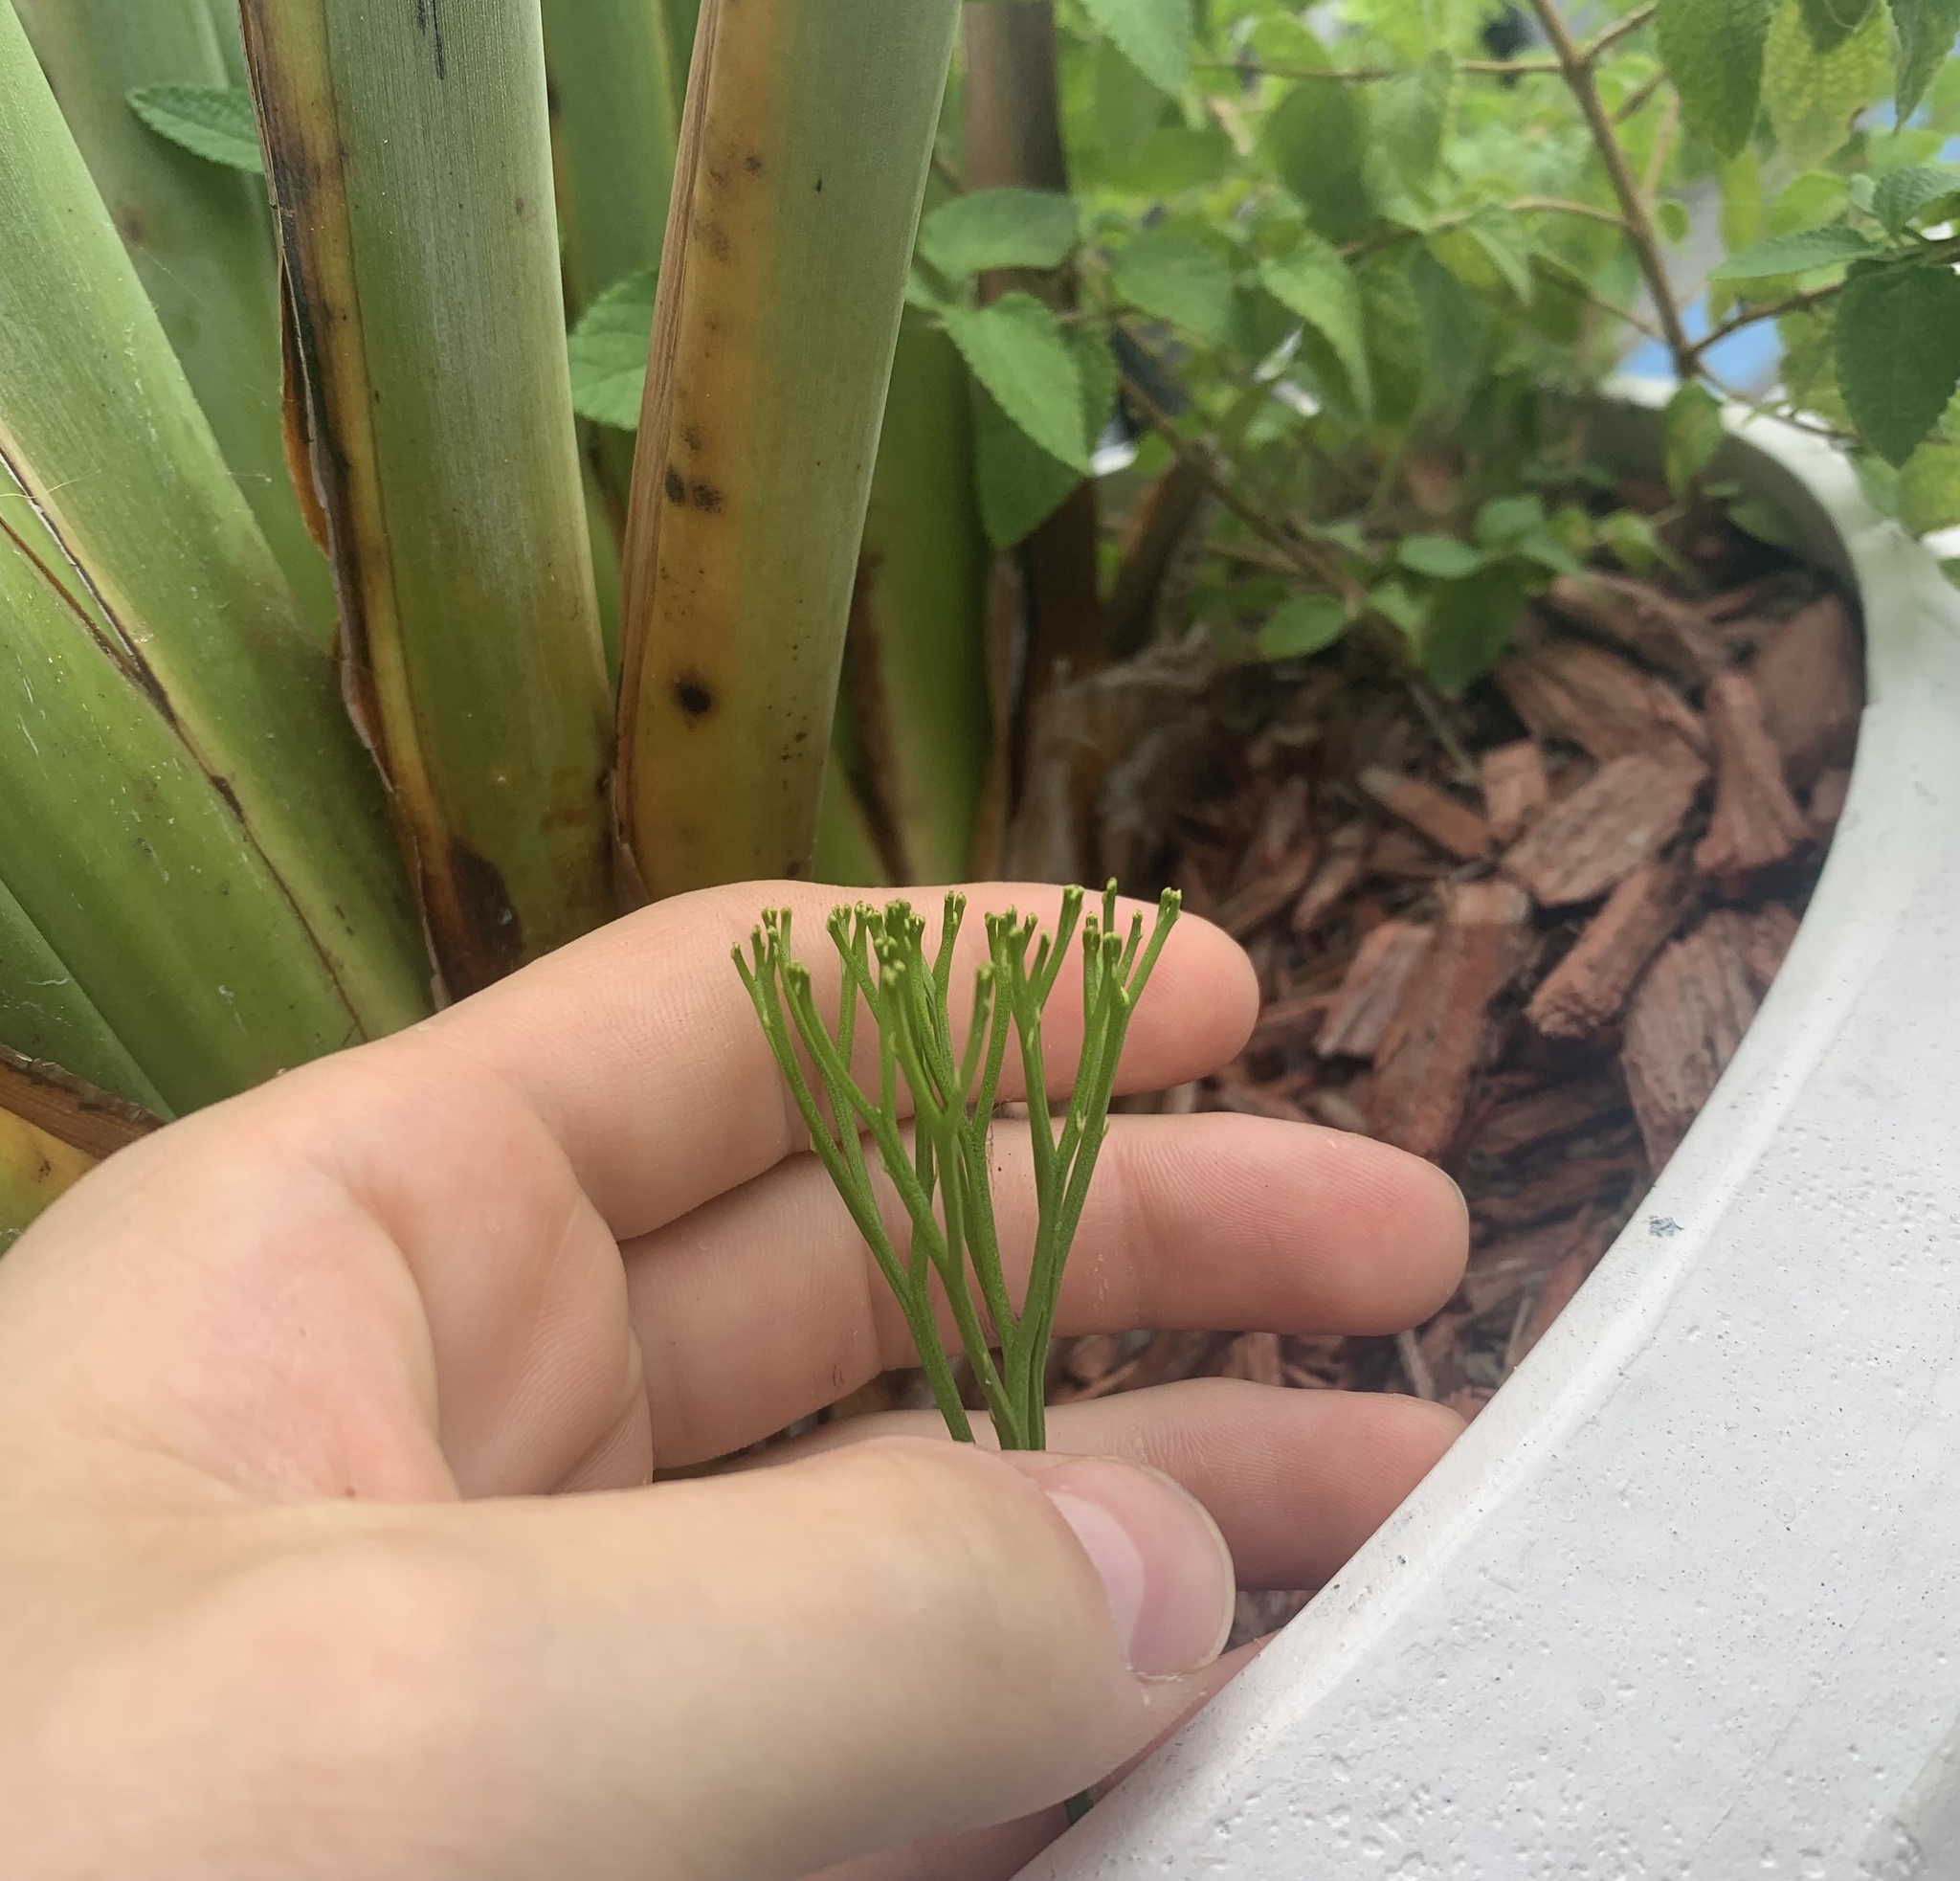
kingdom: Plantae
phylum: Tracheophyta
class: Polypodiopsida
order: Psilotales
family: Psilotaceae
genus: Psilotum
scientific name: Psilotum nudum
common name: Skeleton fork fern
